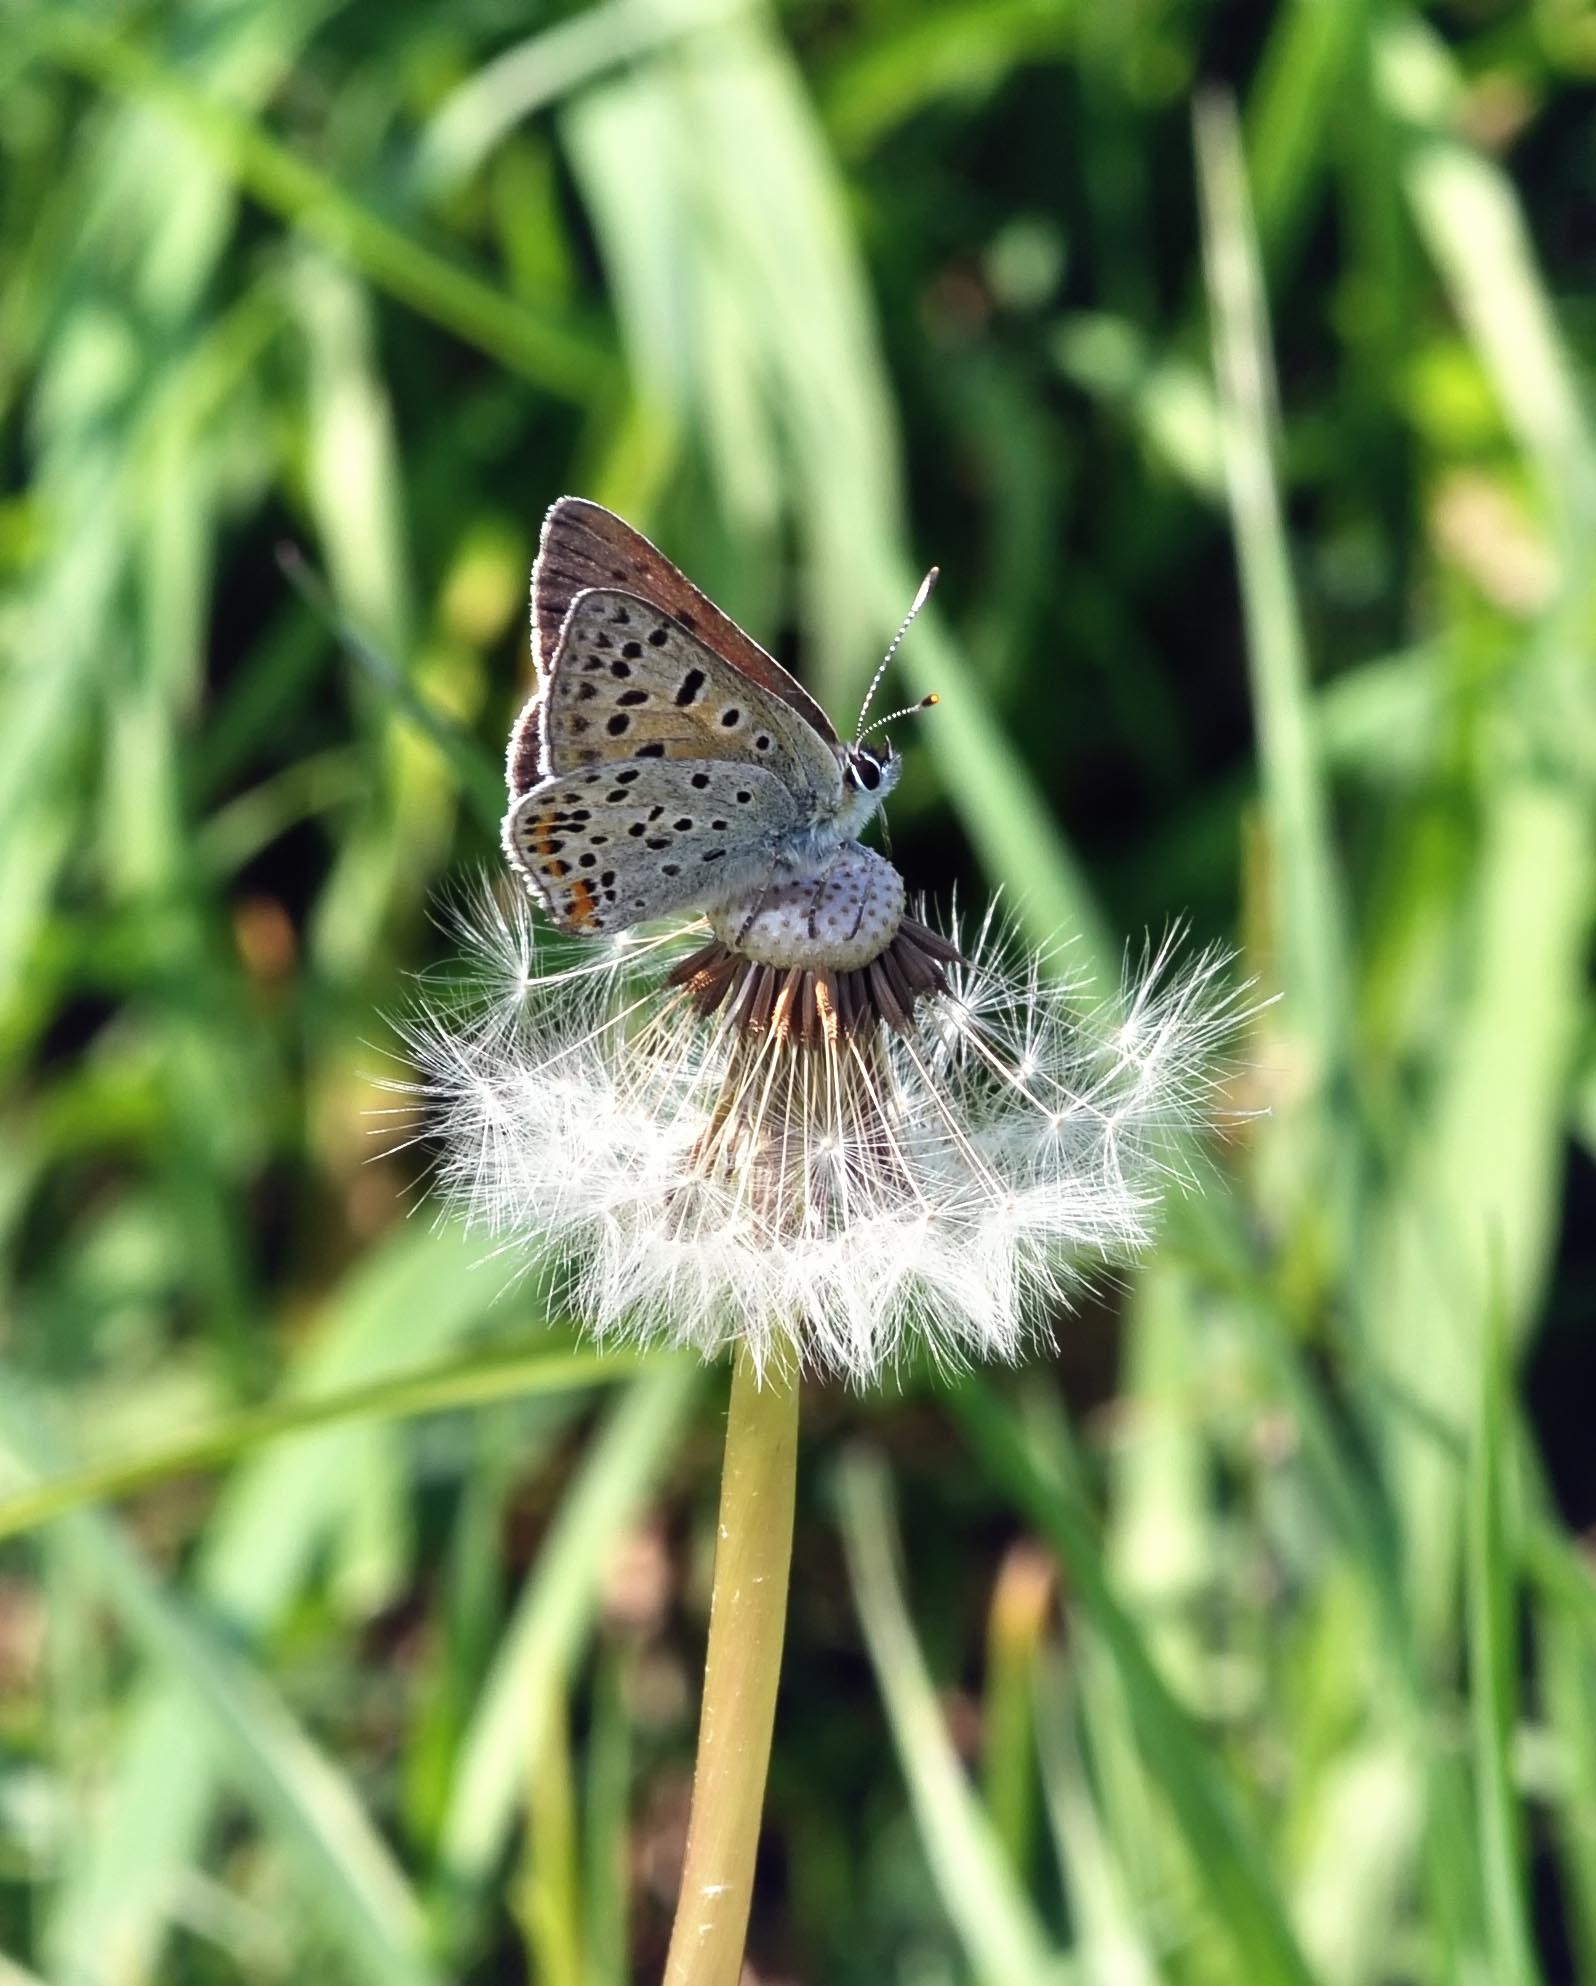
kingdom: Animalia
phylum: Arthropoda
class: Insecta
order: Lepidoptera
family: Lycaenidae
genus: Loweia
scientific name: Loweia tityrus
